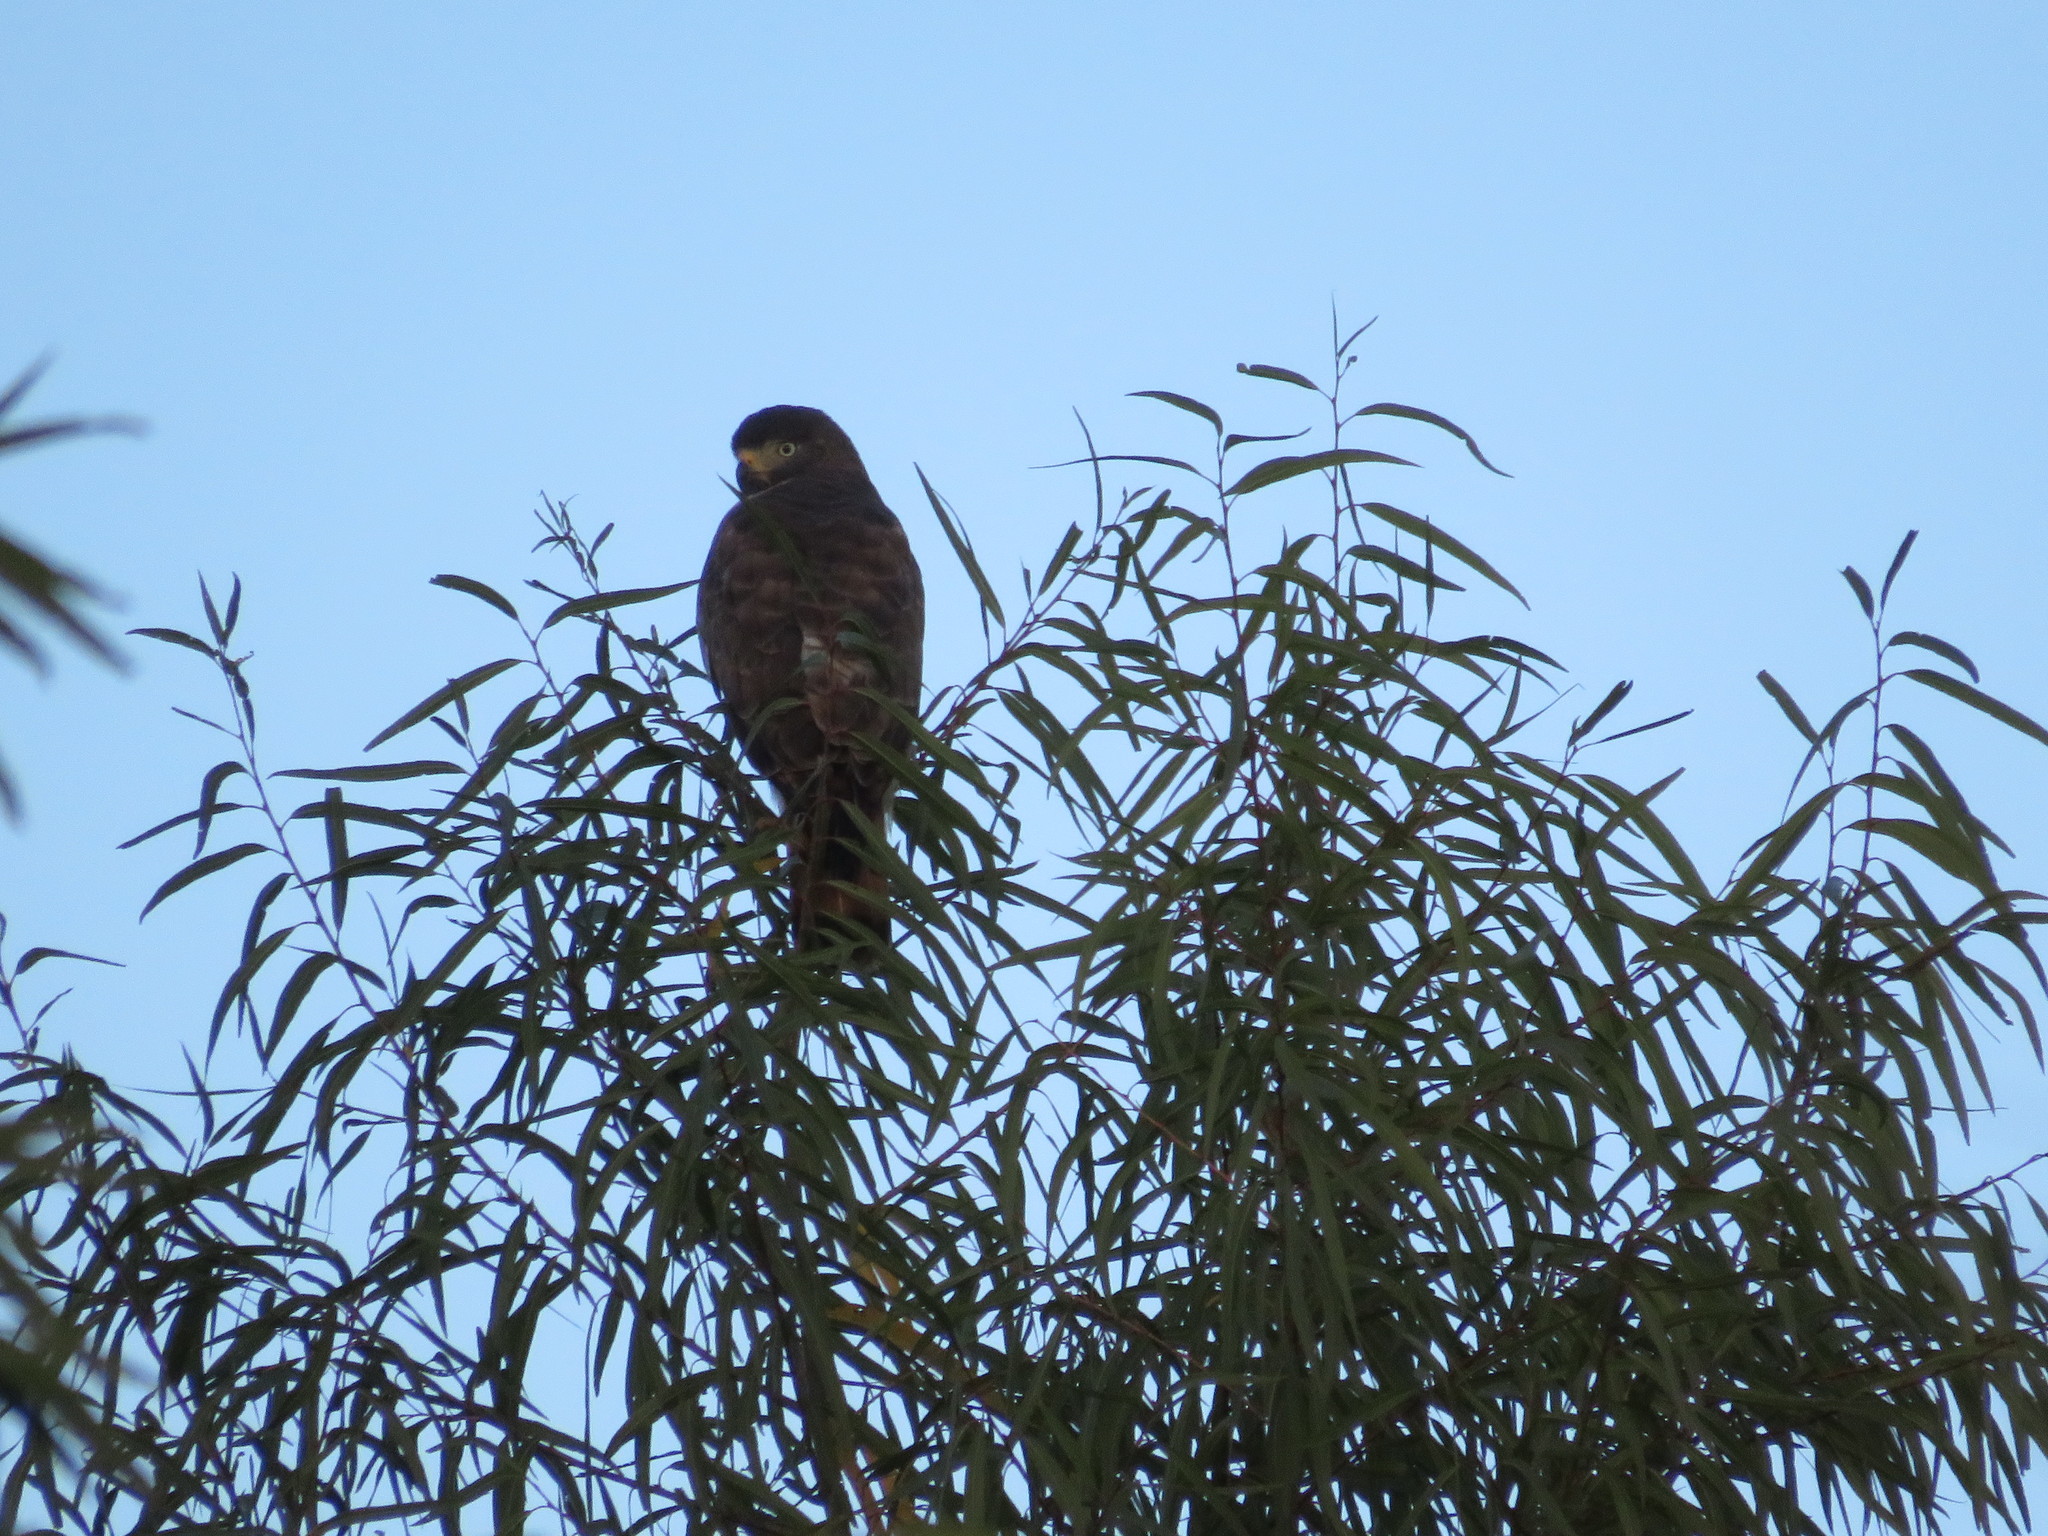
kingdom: Animalia
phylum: Chordata
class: Aves
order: Accipitriformes
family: Accipitridae
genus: Rupornis
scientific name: Rupornis magnirostris
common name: Roadside hawk
